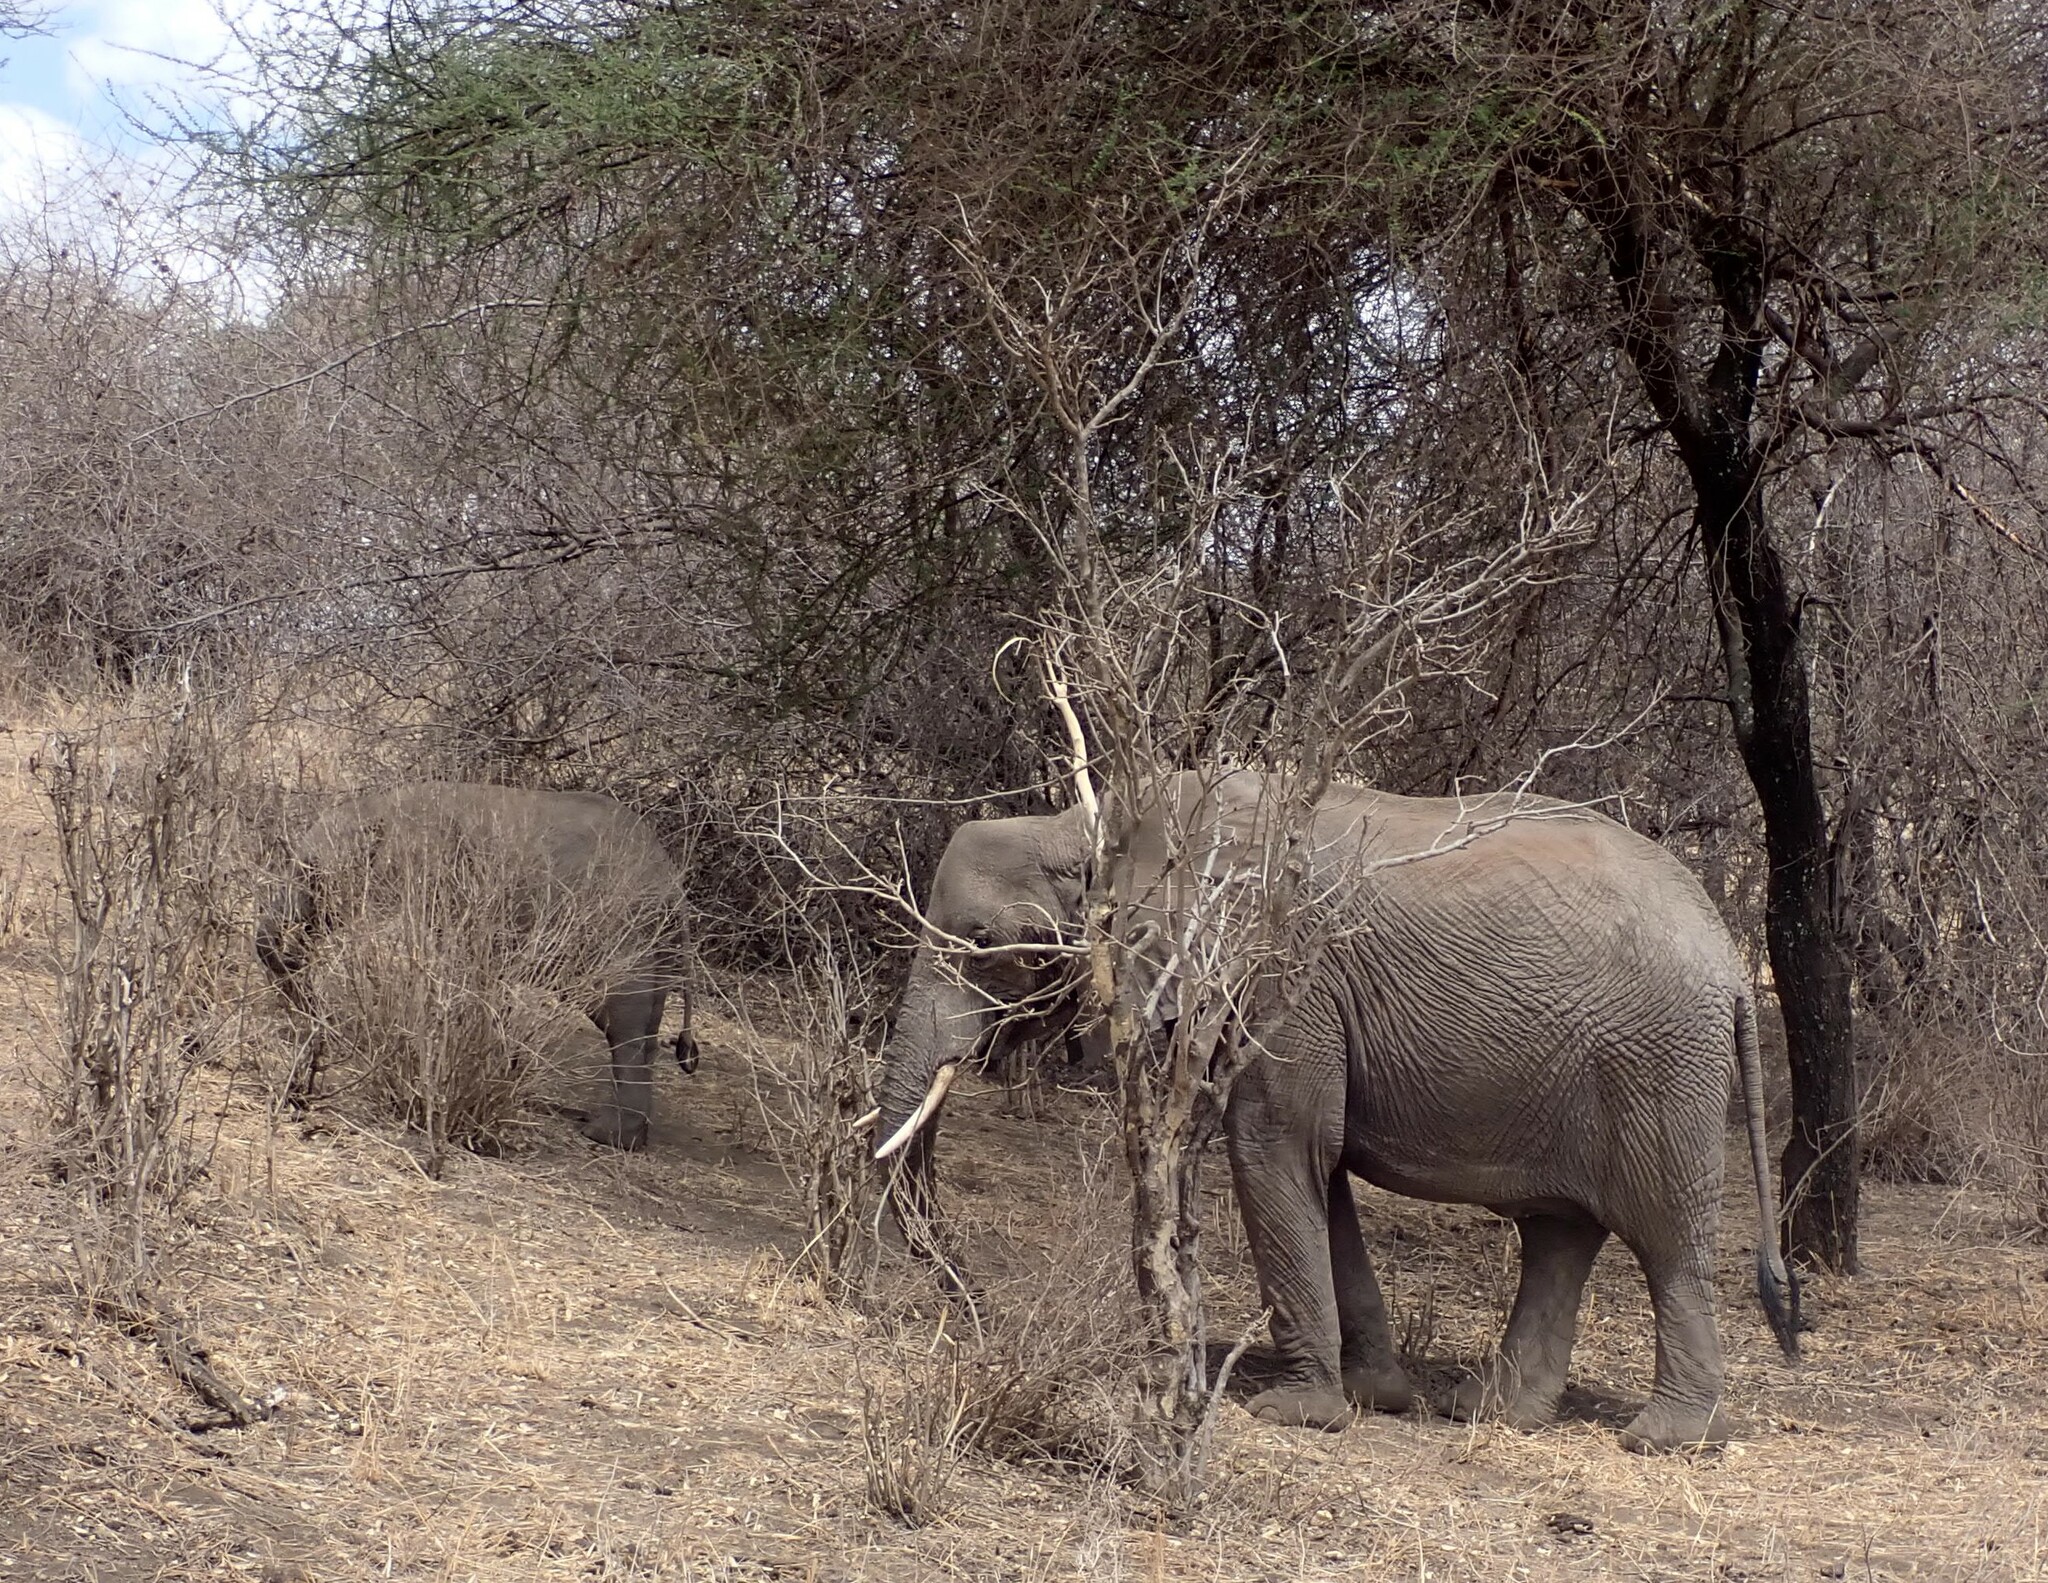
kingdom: Animalia
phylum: Chordata
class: Mammalia
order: Proboscidea
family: Elephantidae
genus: Loxodonta
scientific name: Loxodonta africana
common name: African elephant
